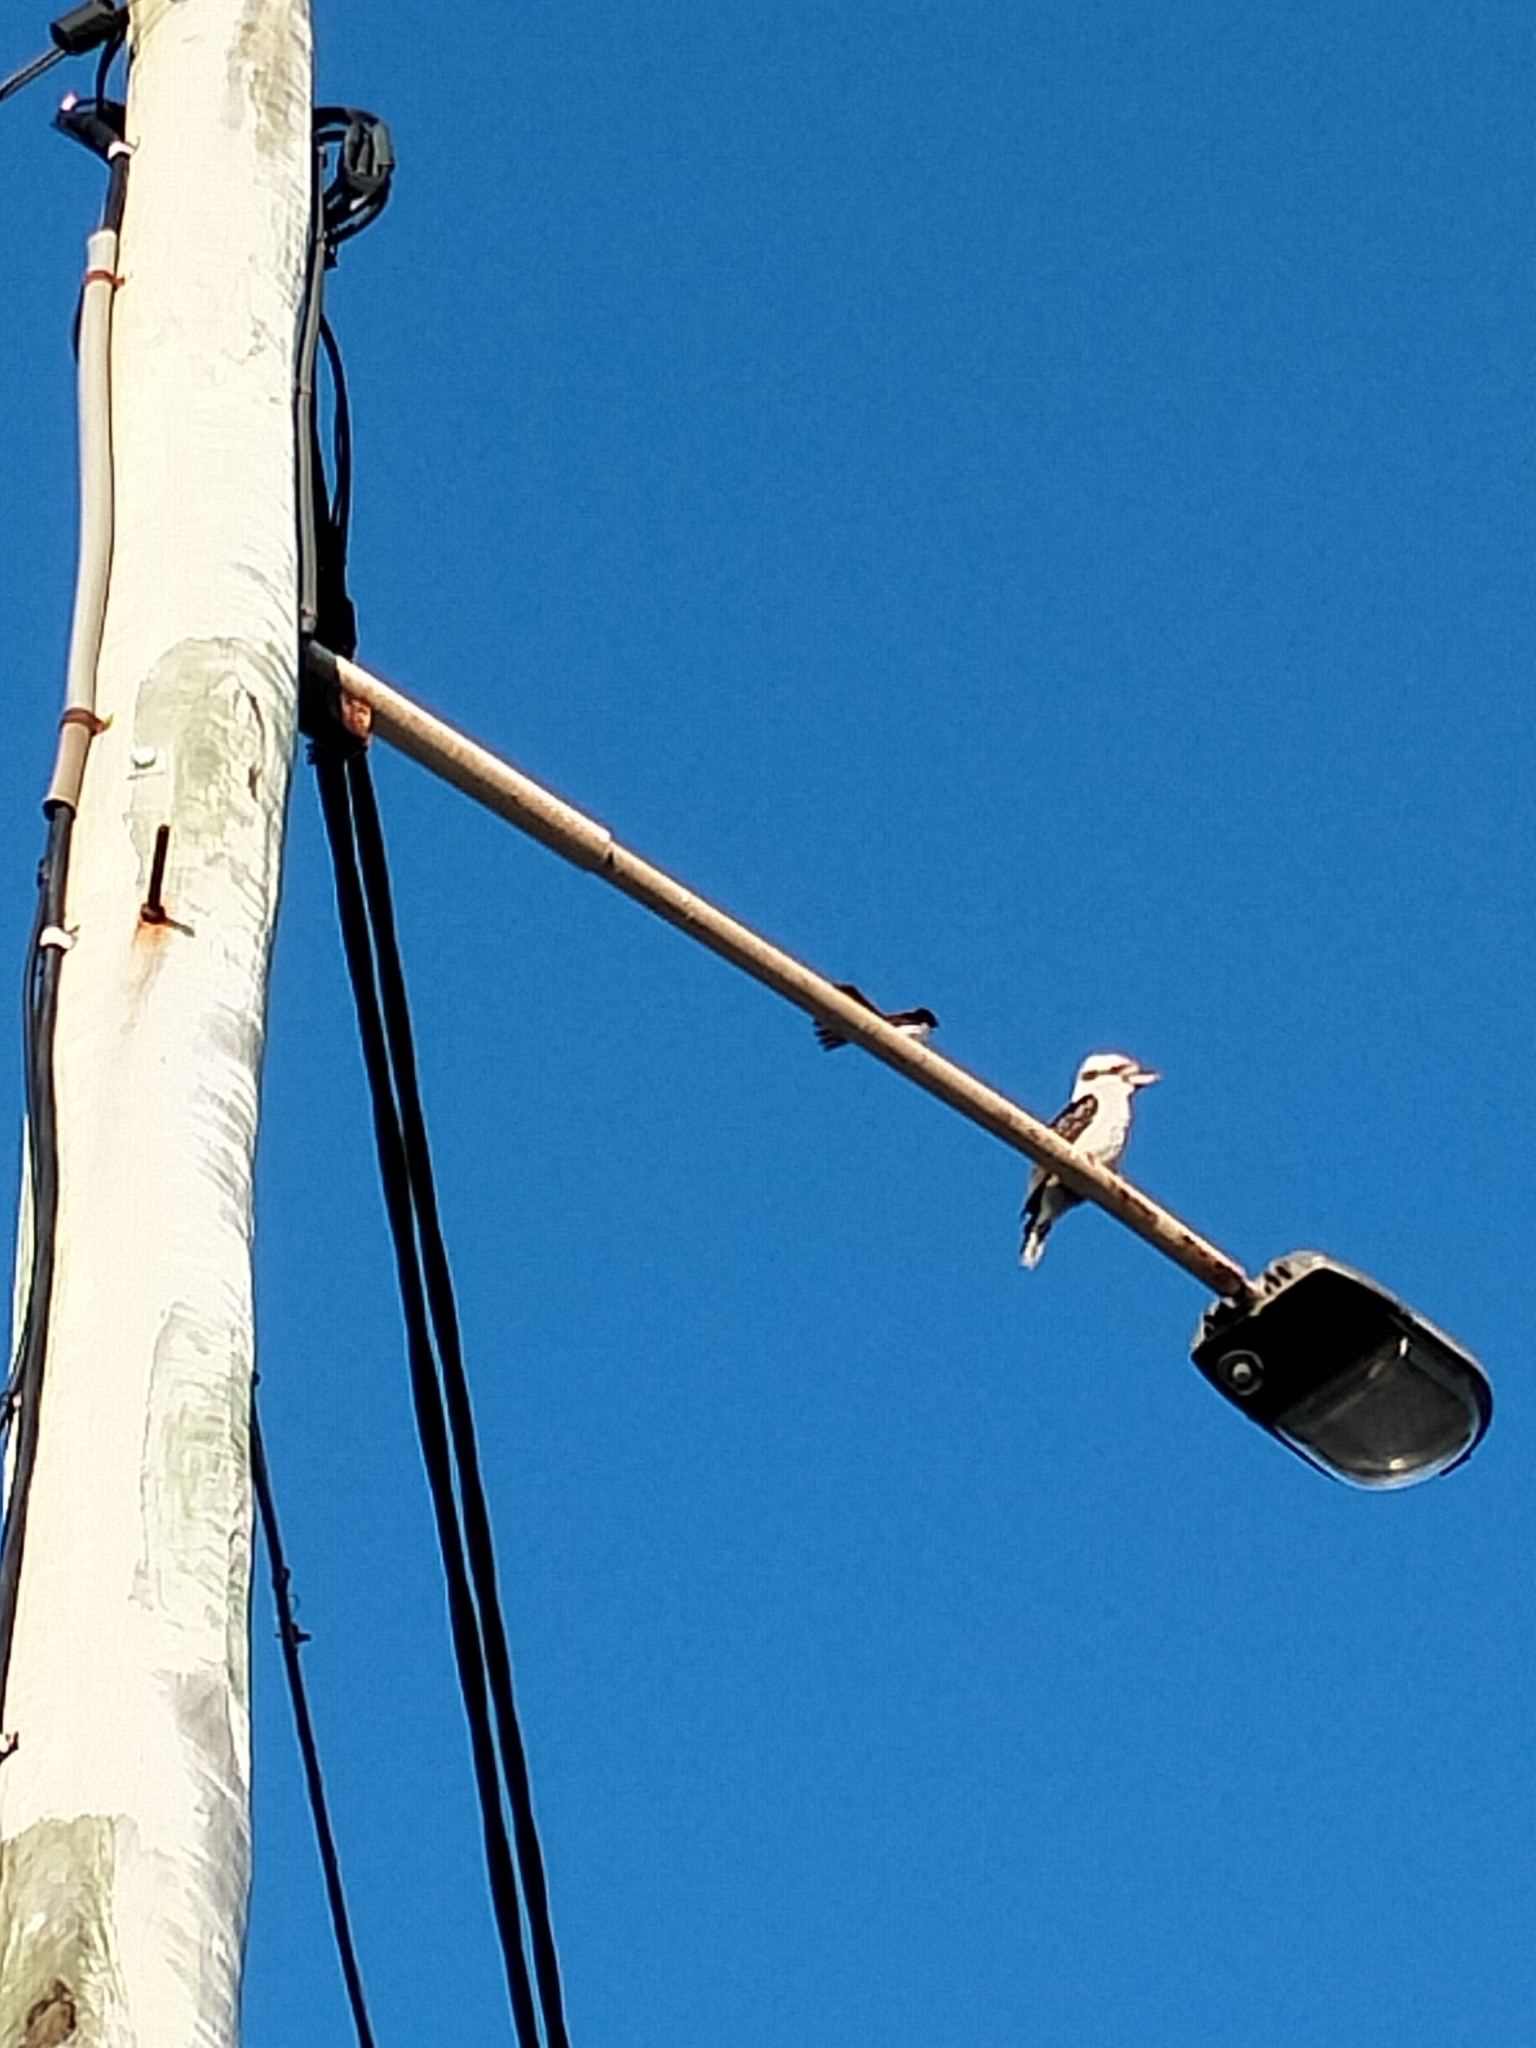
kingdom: Animalia
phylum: Chordata
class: Aves
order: Passeriformes
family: Rhipiduridae
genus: Rhipidura
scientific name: Rhipidura leucophrys
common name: Willie wagtail
